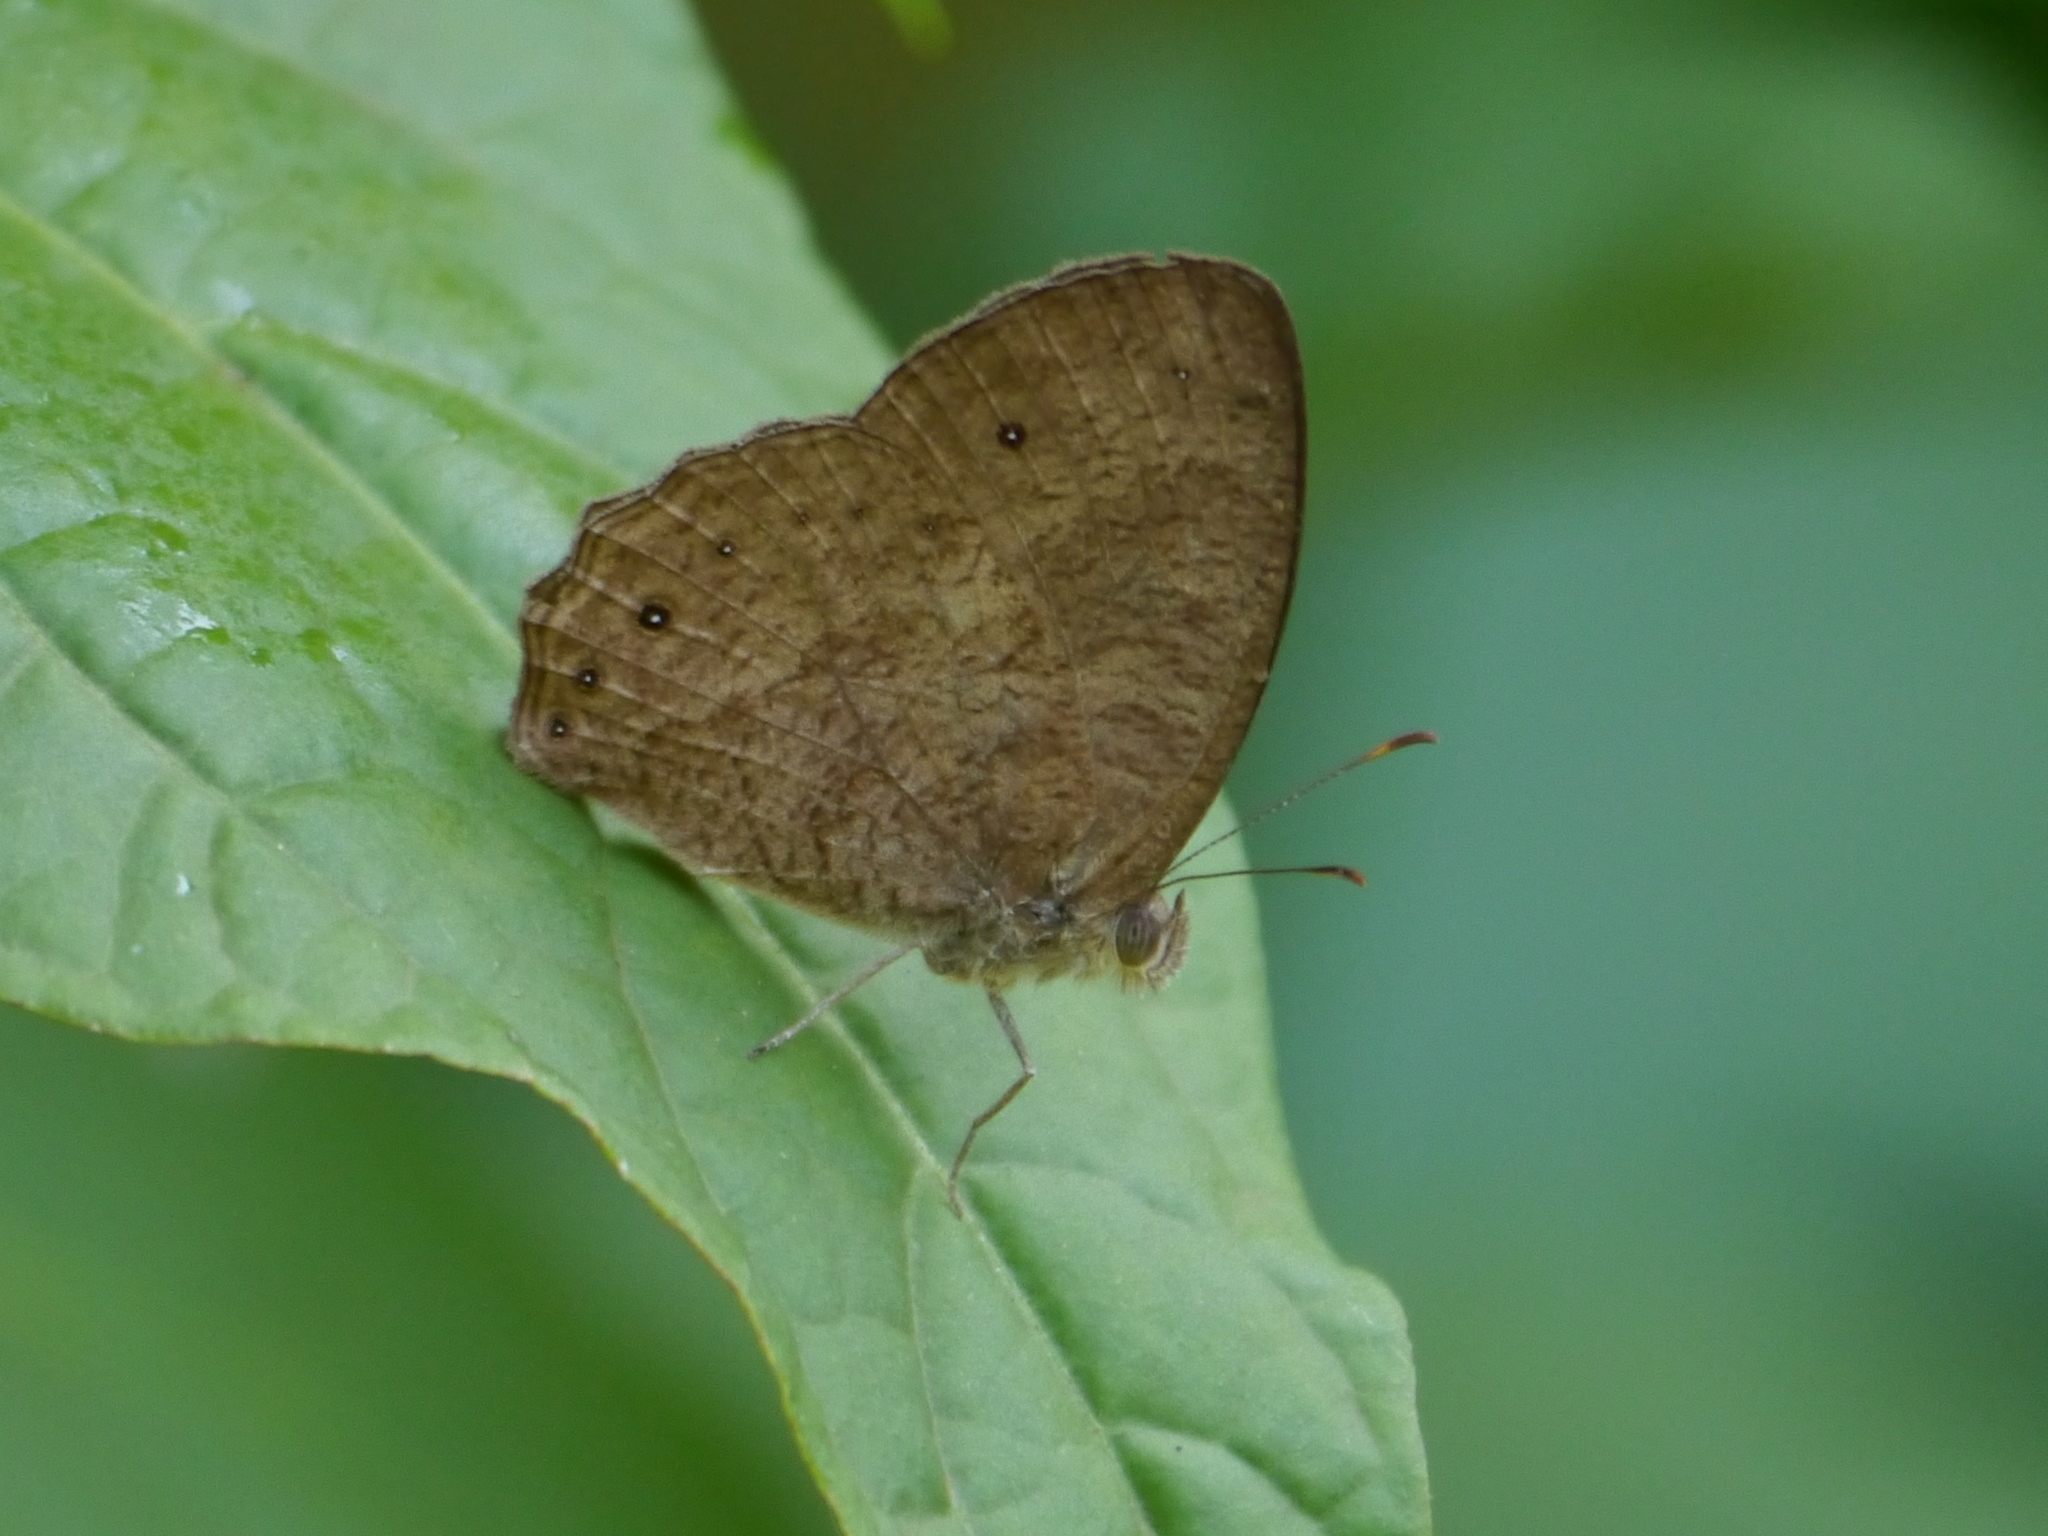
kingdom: Animalia
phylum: Arthropoda
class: Insecta
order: Lepidoptera
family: Nymphalidae
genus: Bicyclus
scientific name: Bicyclus jefferyi
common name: Jeffery's bush-brown
